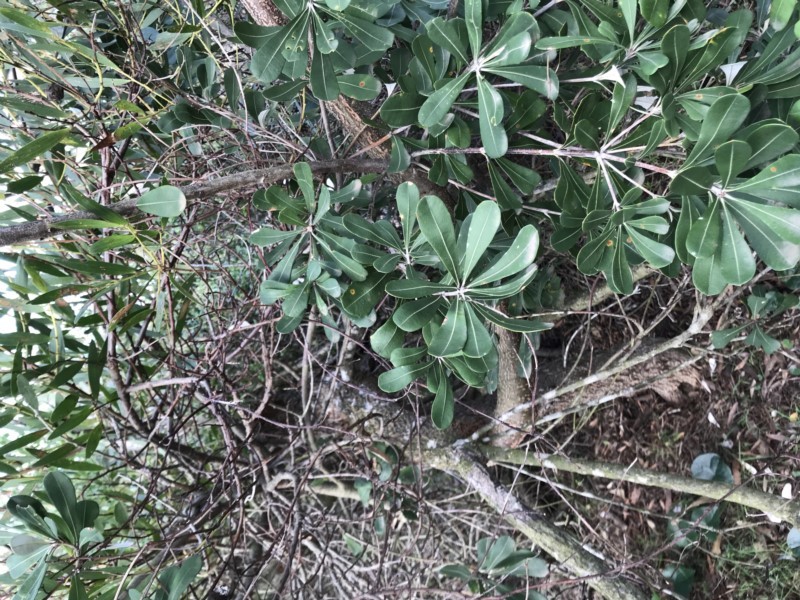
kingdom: Plantae
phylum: Tracheophyta
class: Magnoliopsida
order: Proteales
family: Proteaceae
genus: Banksia
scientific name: Banksia integrifolia
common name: White-honeysuckle
